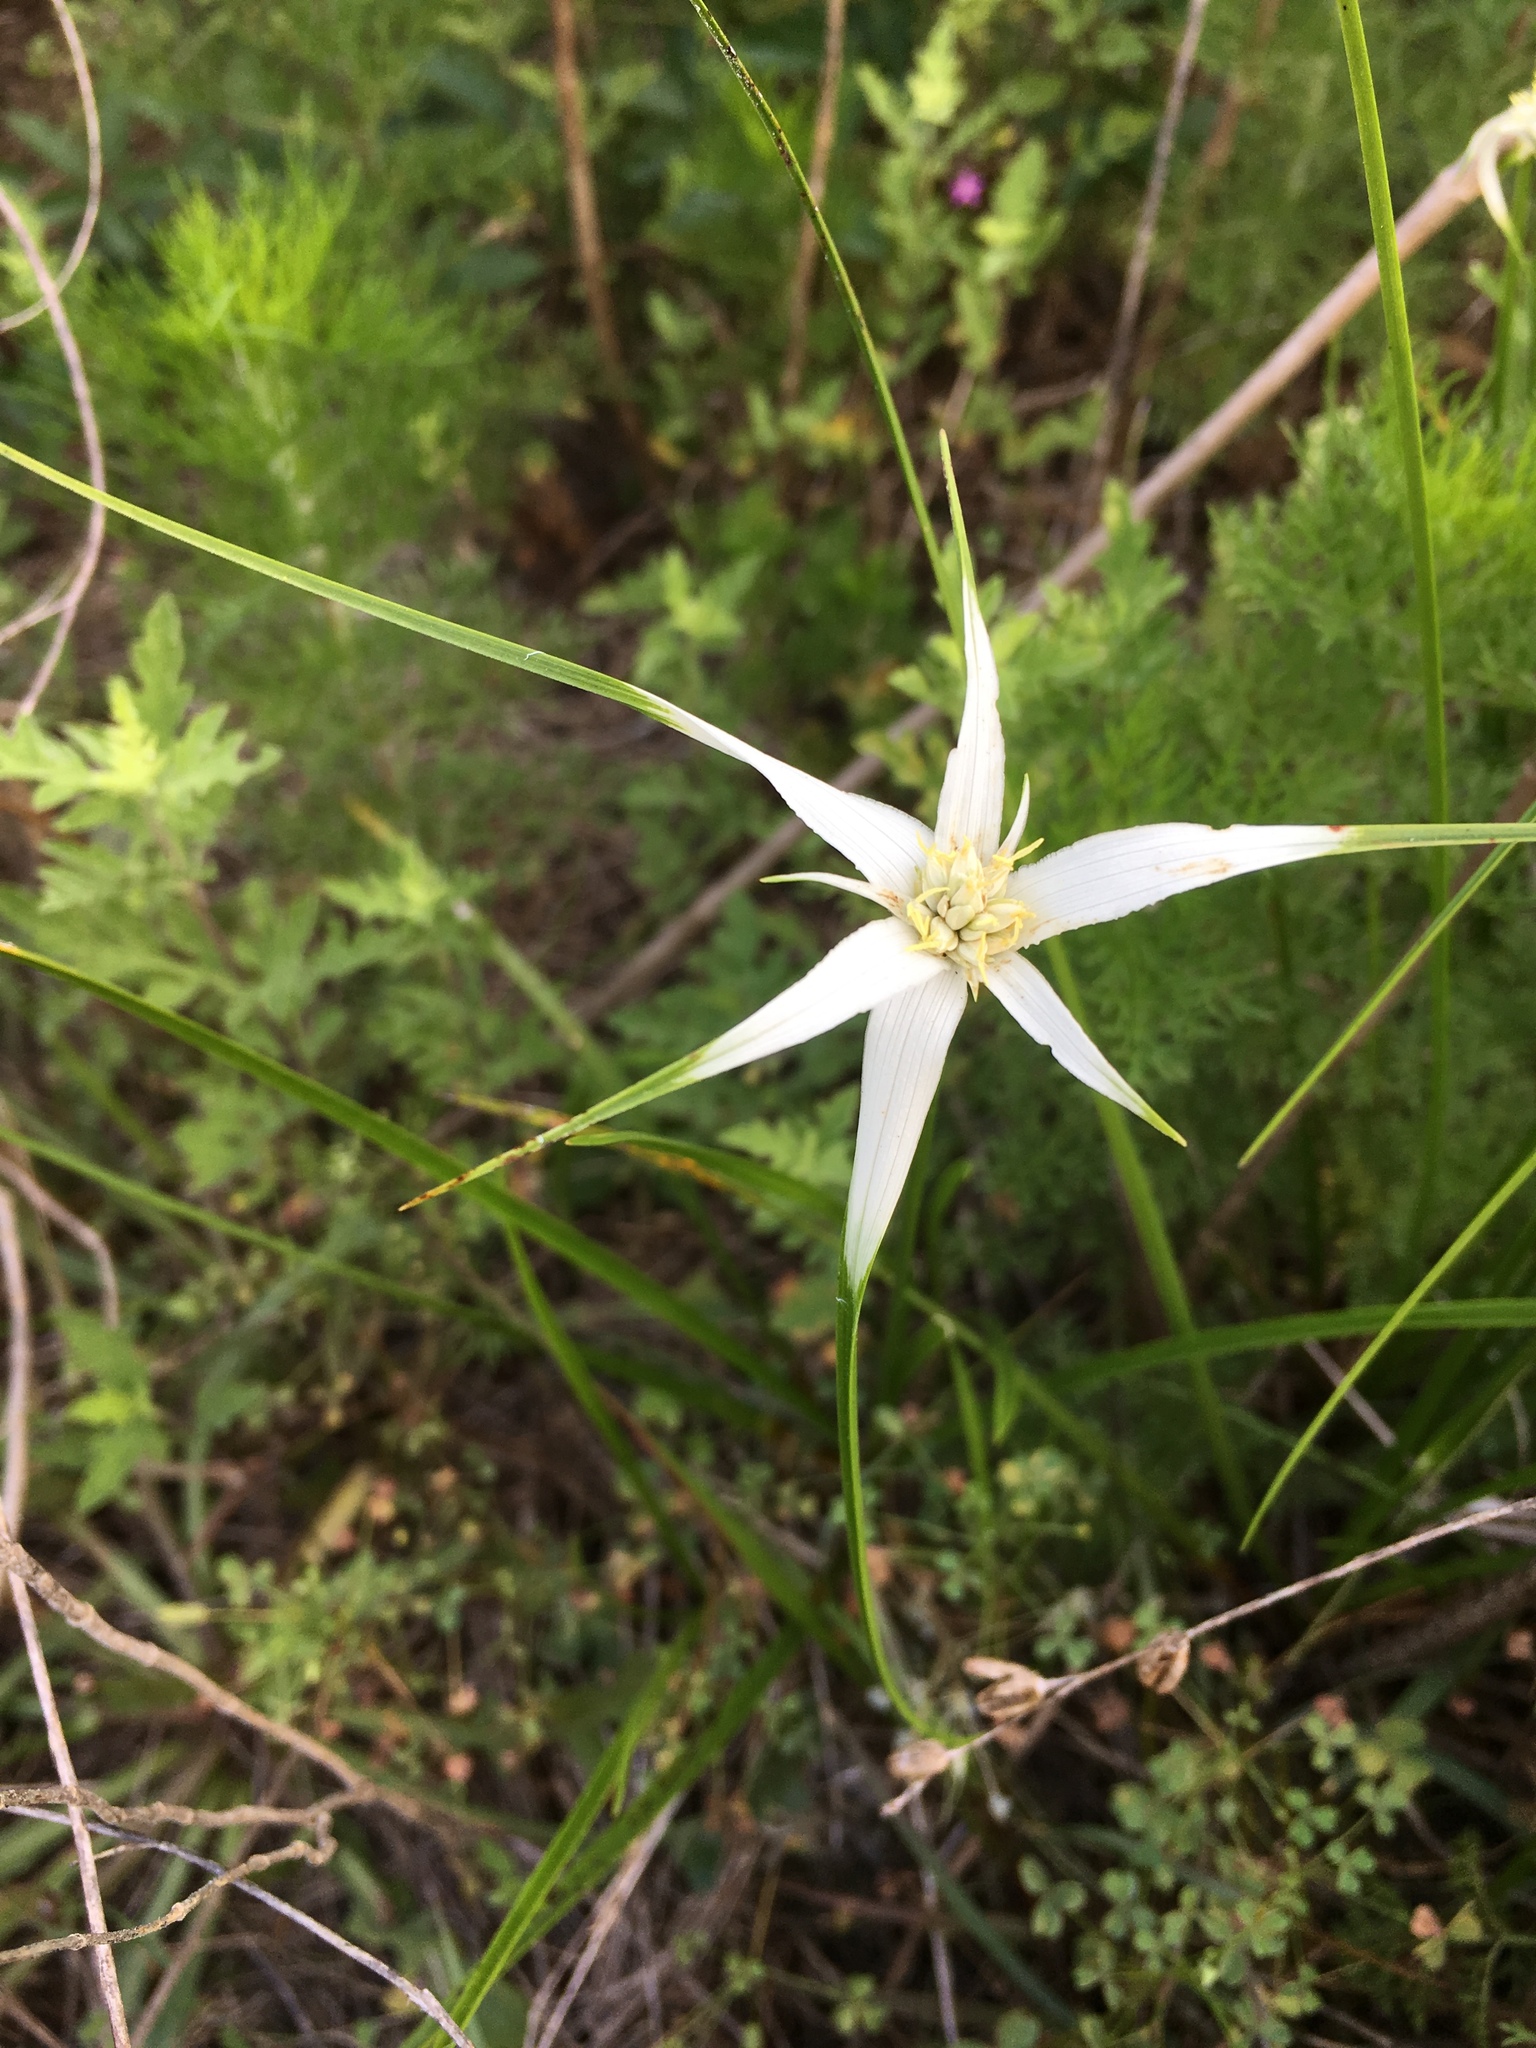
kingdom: Plantae
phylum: Tracheophyta
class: Liliopsida
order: Poales
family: Cyperaceae
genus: Rhynchospora
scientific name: Rhynchospora colorata
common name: Star sedge
